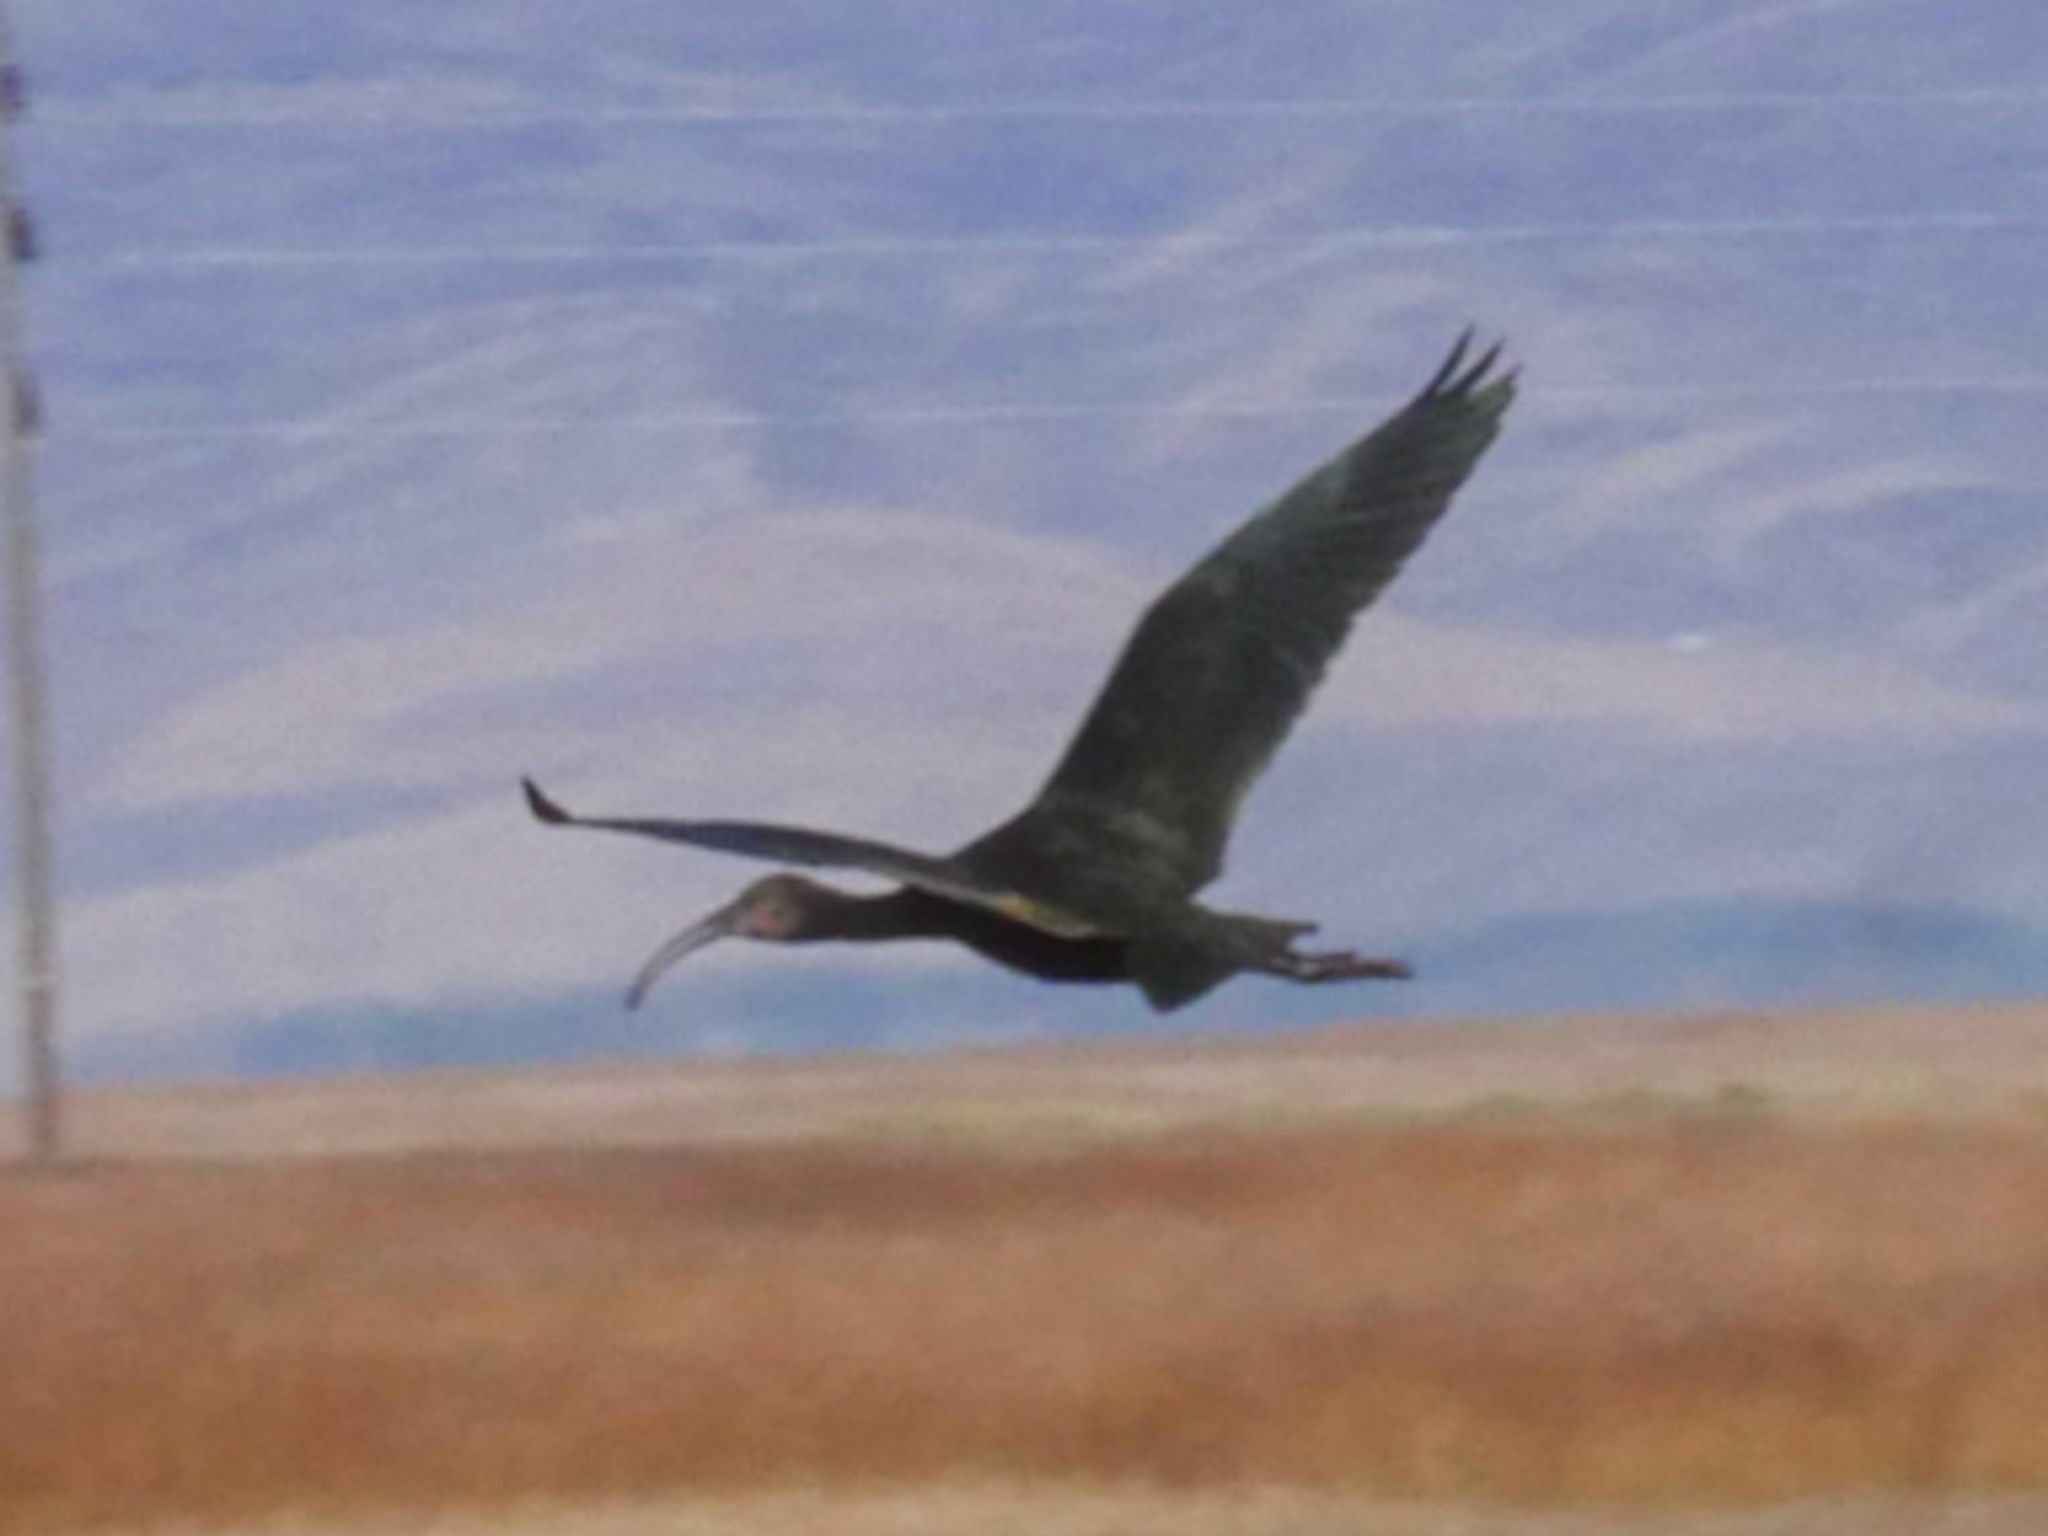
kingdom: Animalia
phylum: Chordata
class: Aves
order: Pelecaniformes
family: Threskiornithidae
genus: Plegadis
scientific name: Plegadis chihi
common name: White-faced ibis
